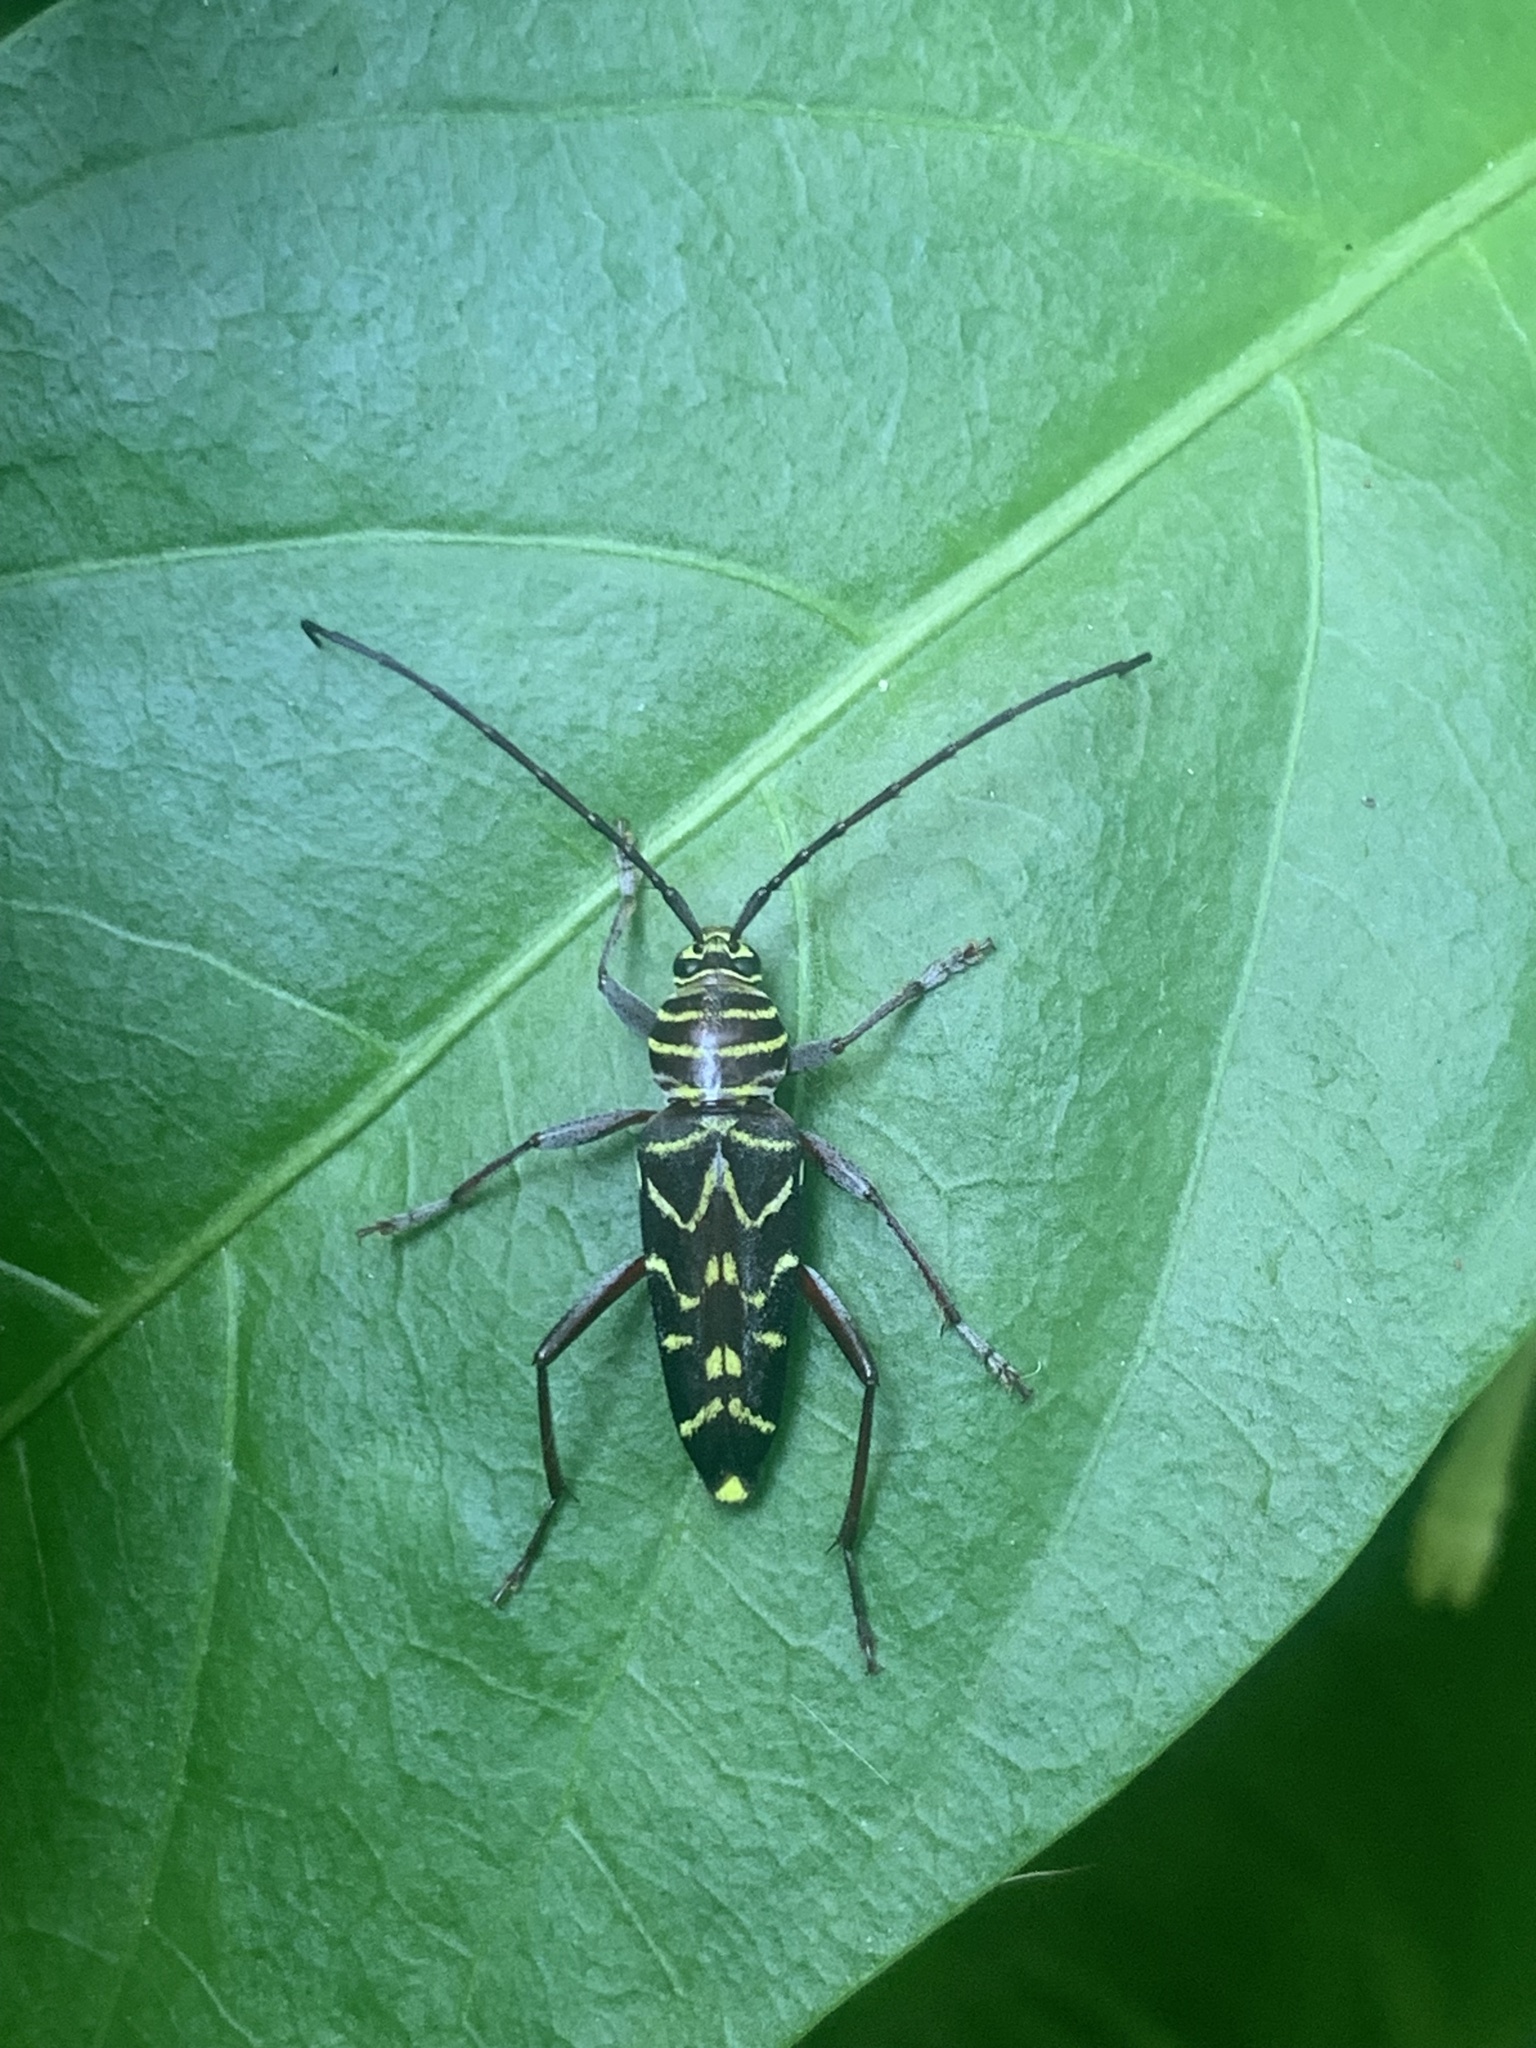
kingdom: Animalia
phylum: Arthropoda
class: Insecta
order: Coleoptera
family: Cerambycidae
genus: Megacyllene
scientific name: Megacyllene acuta
